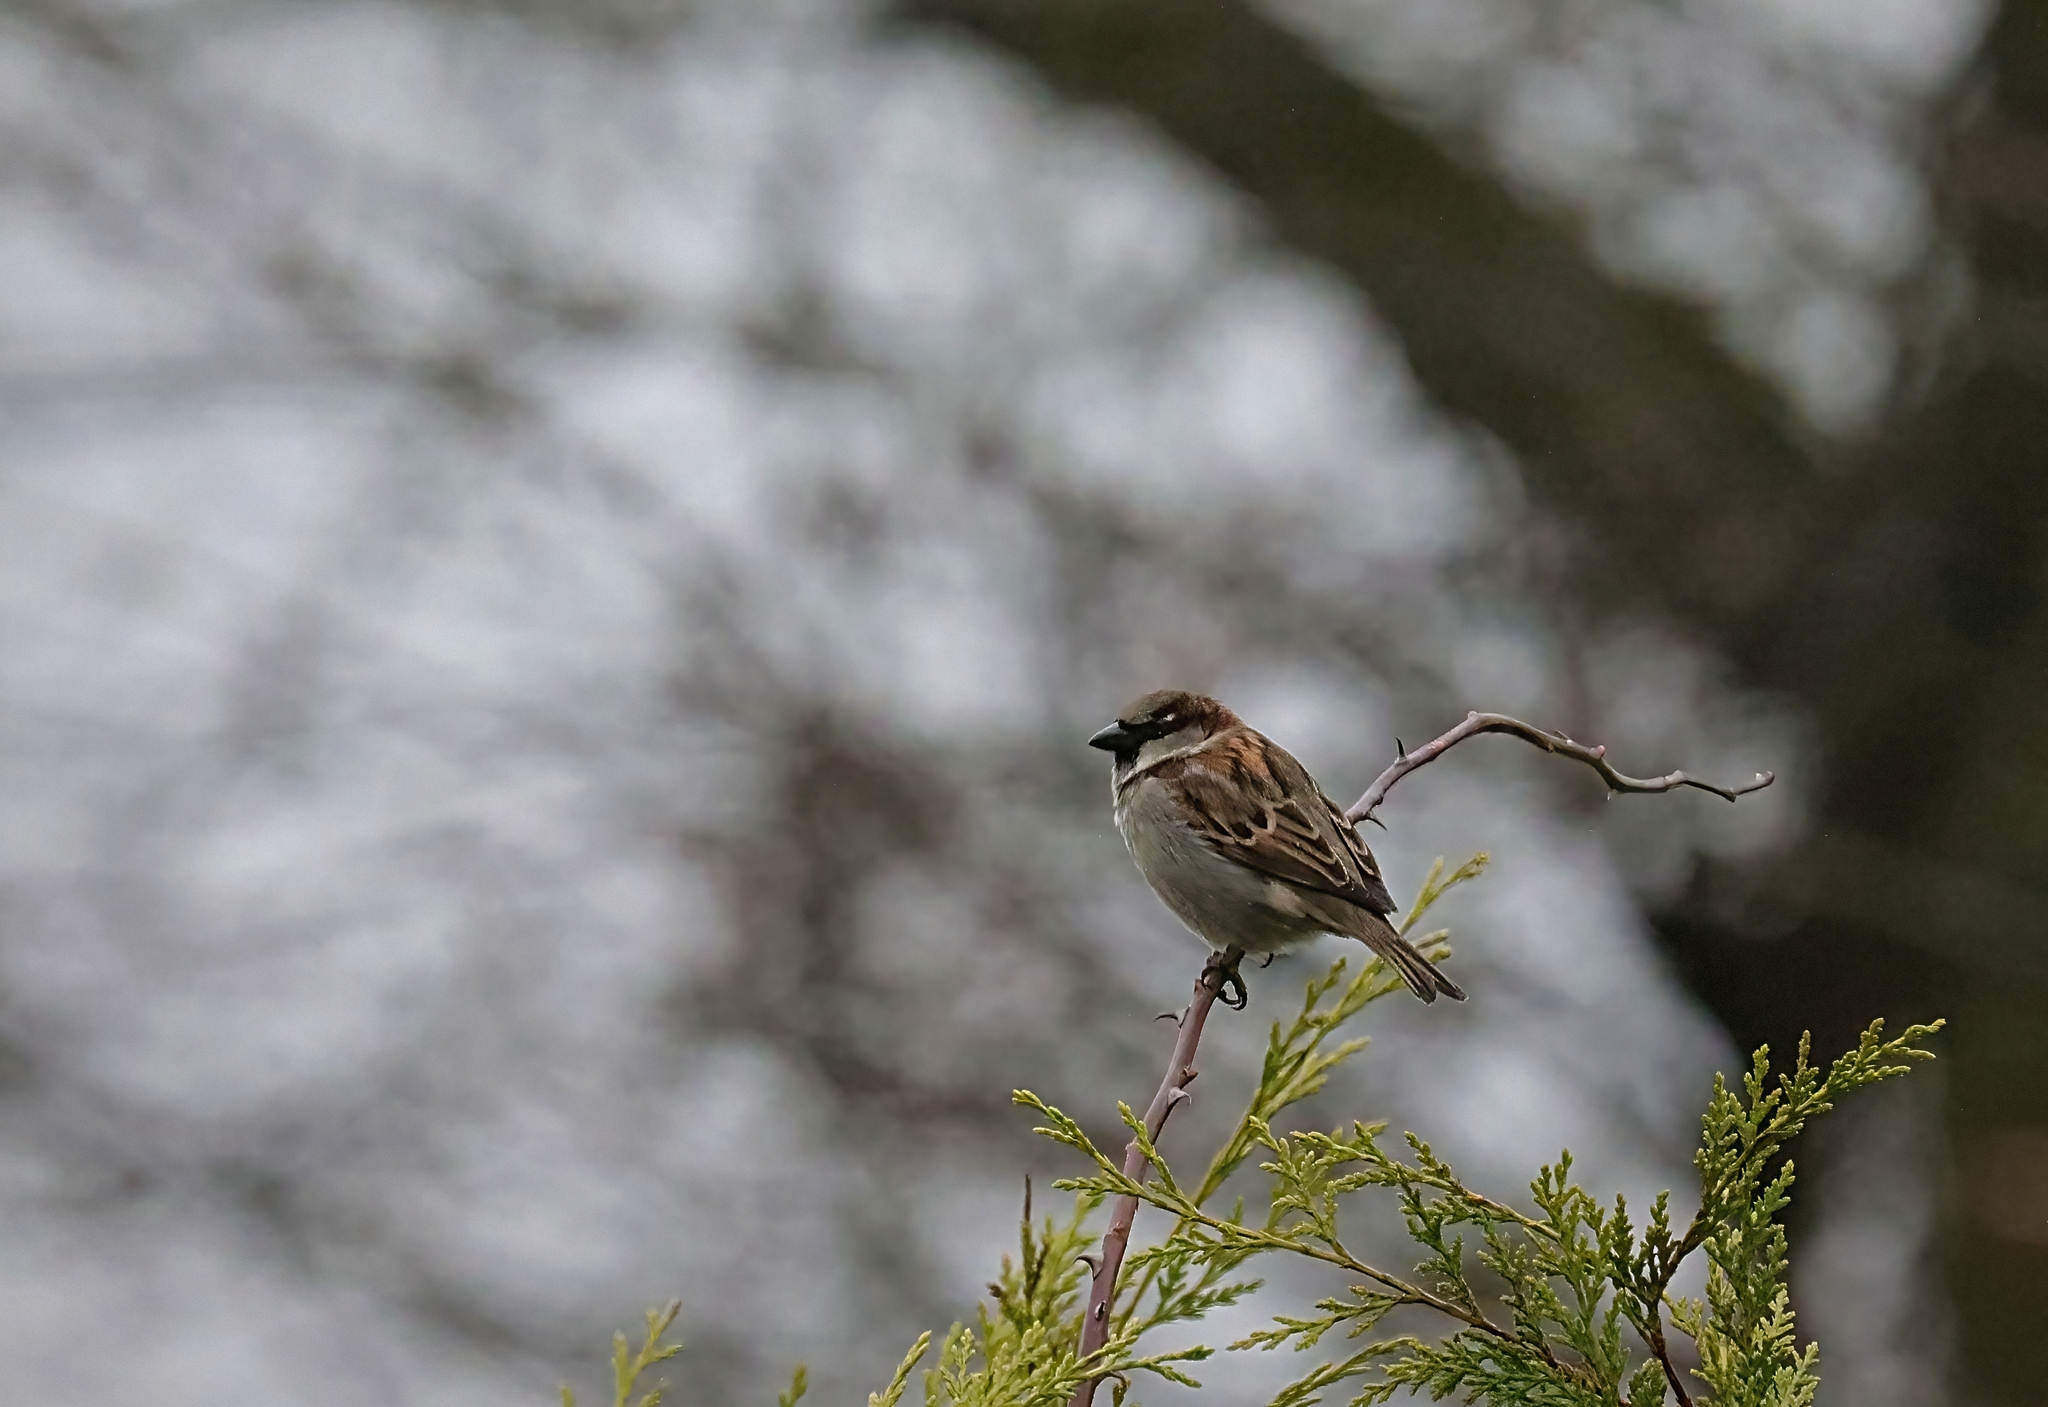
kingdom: Animalia
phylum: Chordata
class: Aves
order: Passeriformes
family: Passeridae
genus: Passer
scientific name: Passer domesticus
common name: House sparrow
